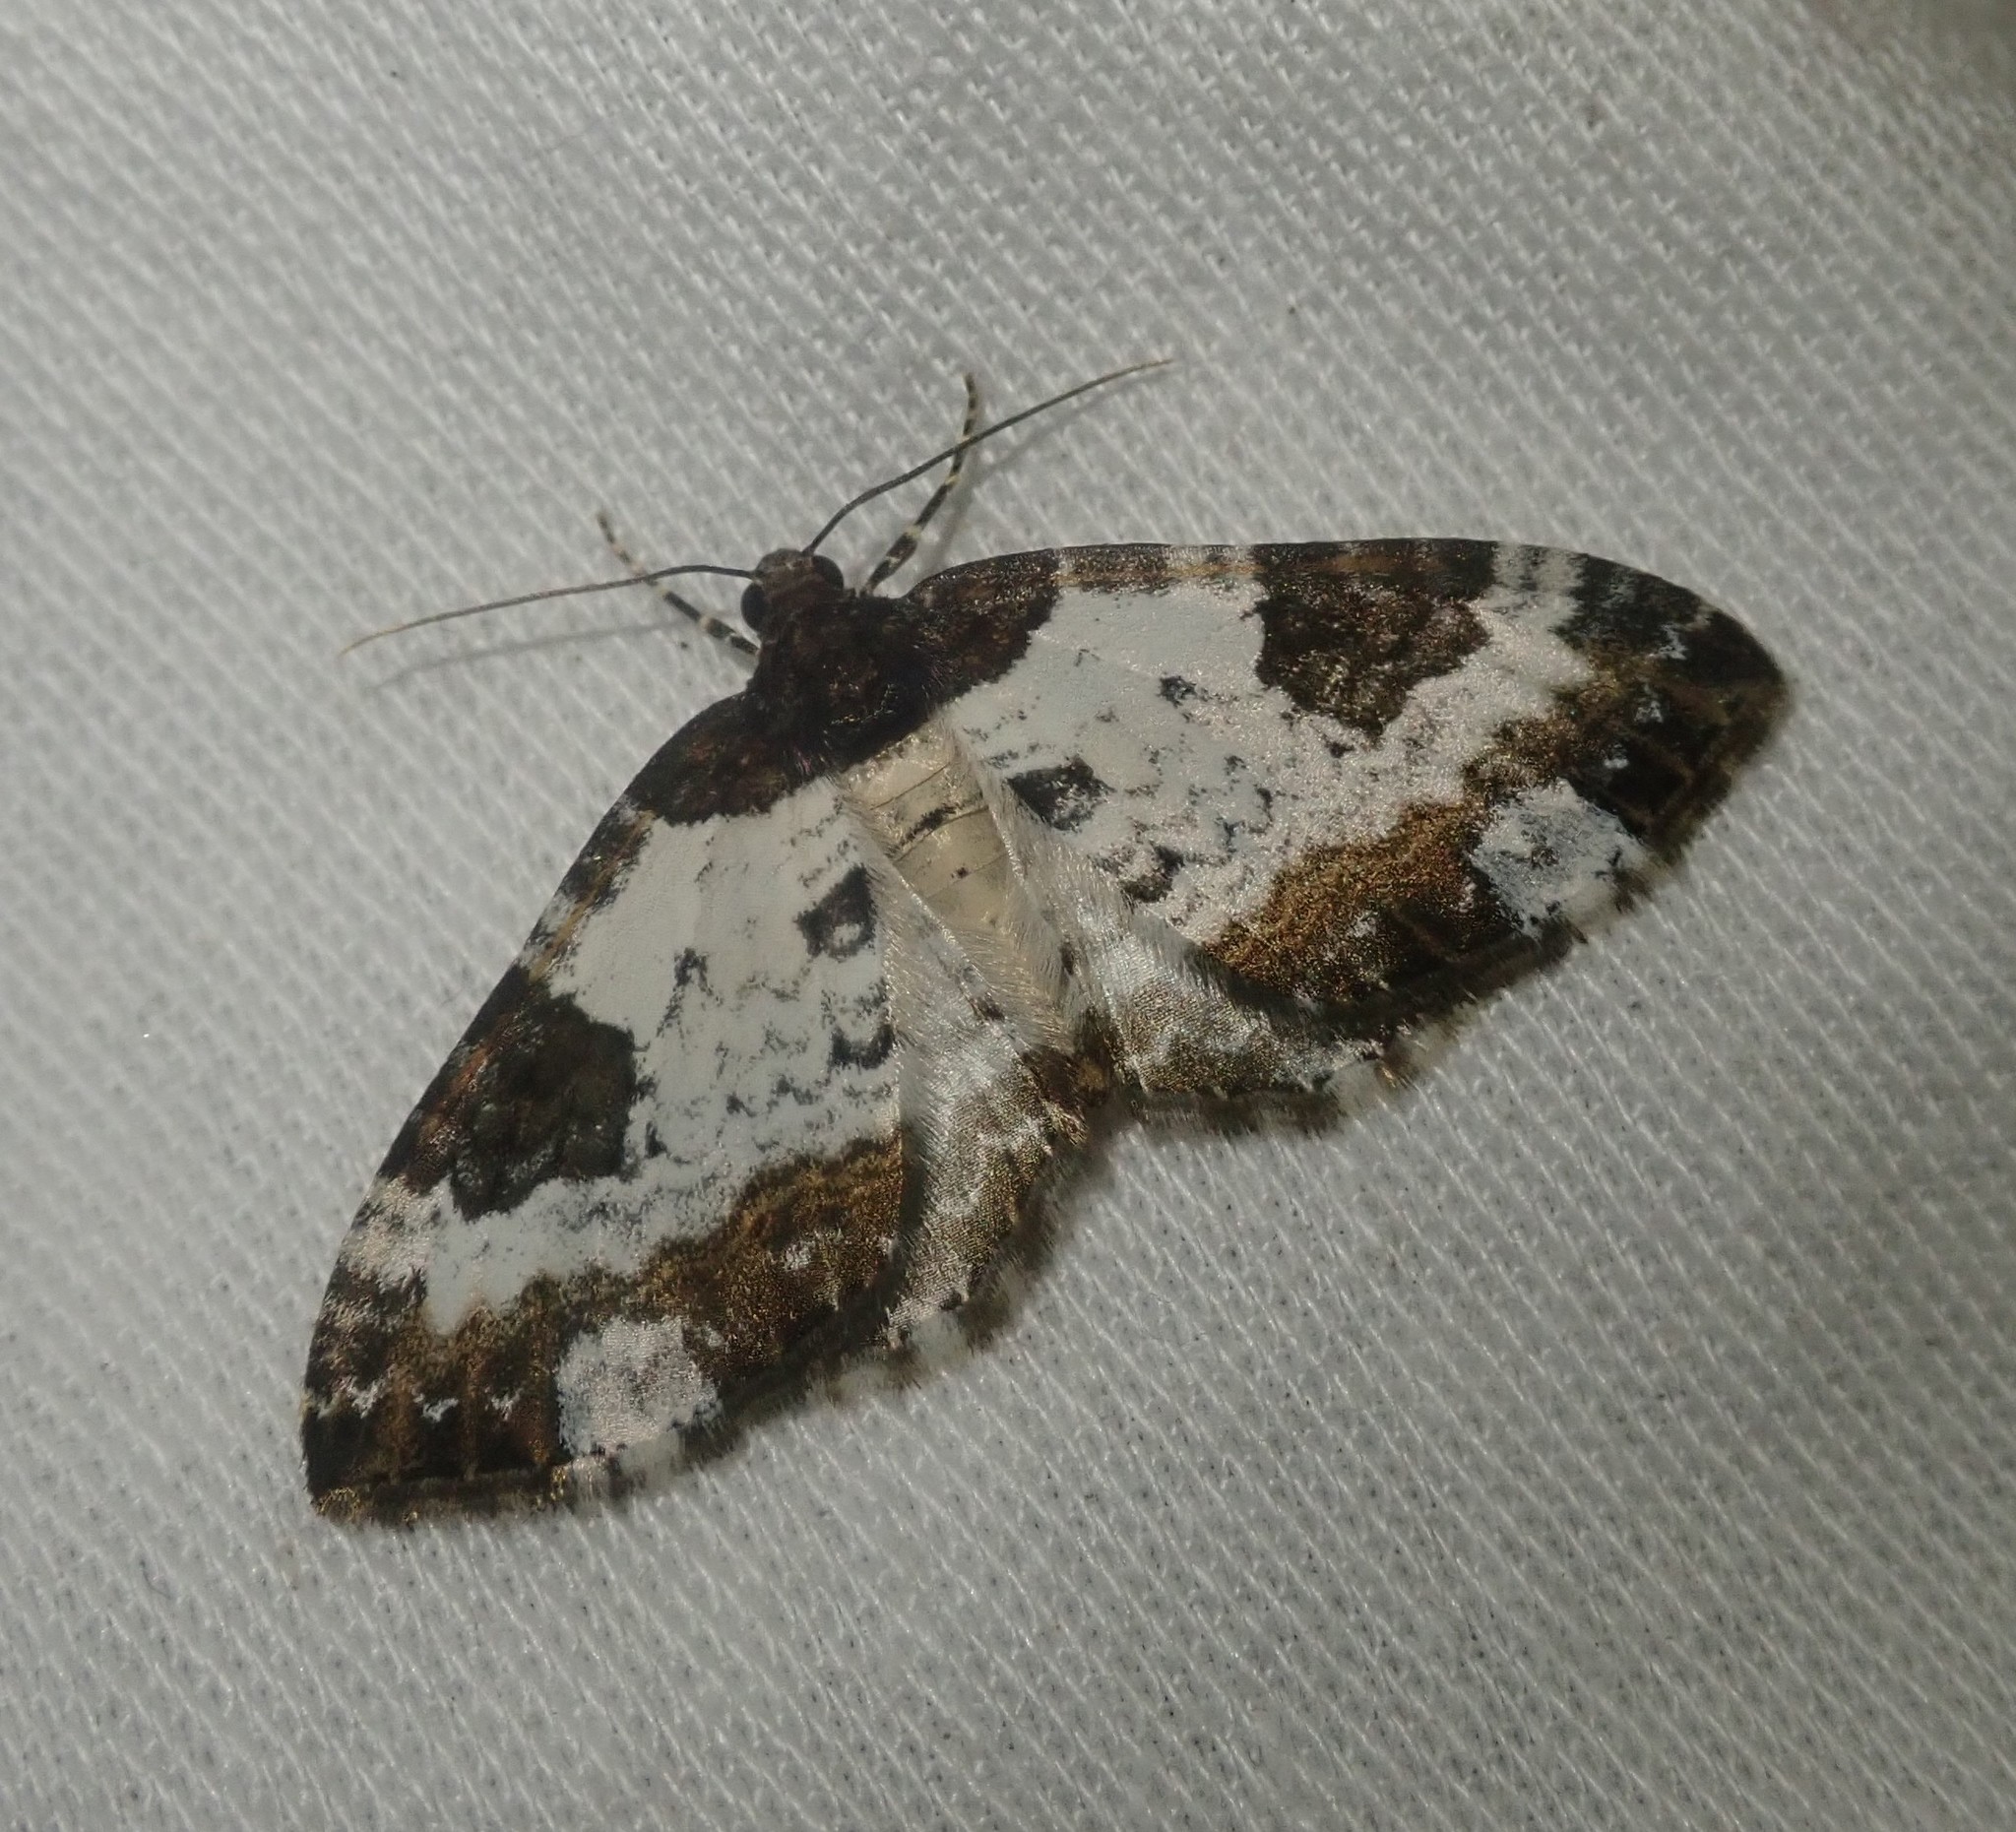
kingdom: Animalia
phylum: Arthropoda
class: Insecta
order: Lepidoptera
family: Geometridae
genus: Melanthia
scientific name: Melanthia procellata
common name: Pretty chalk carpet
